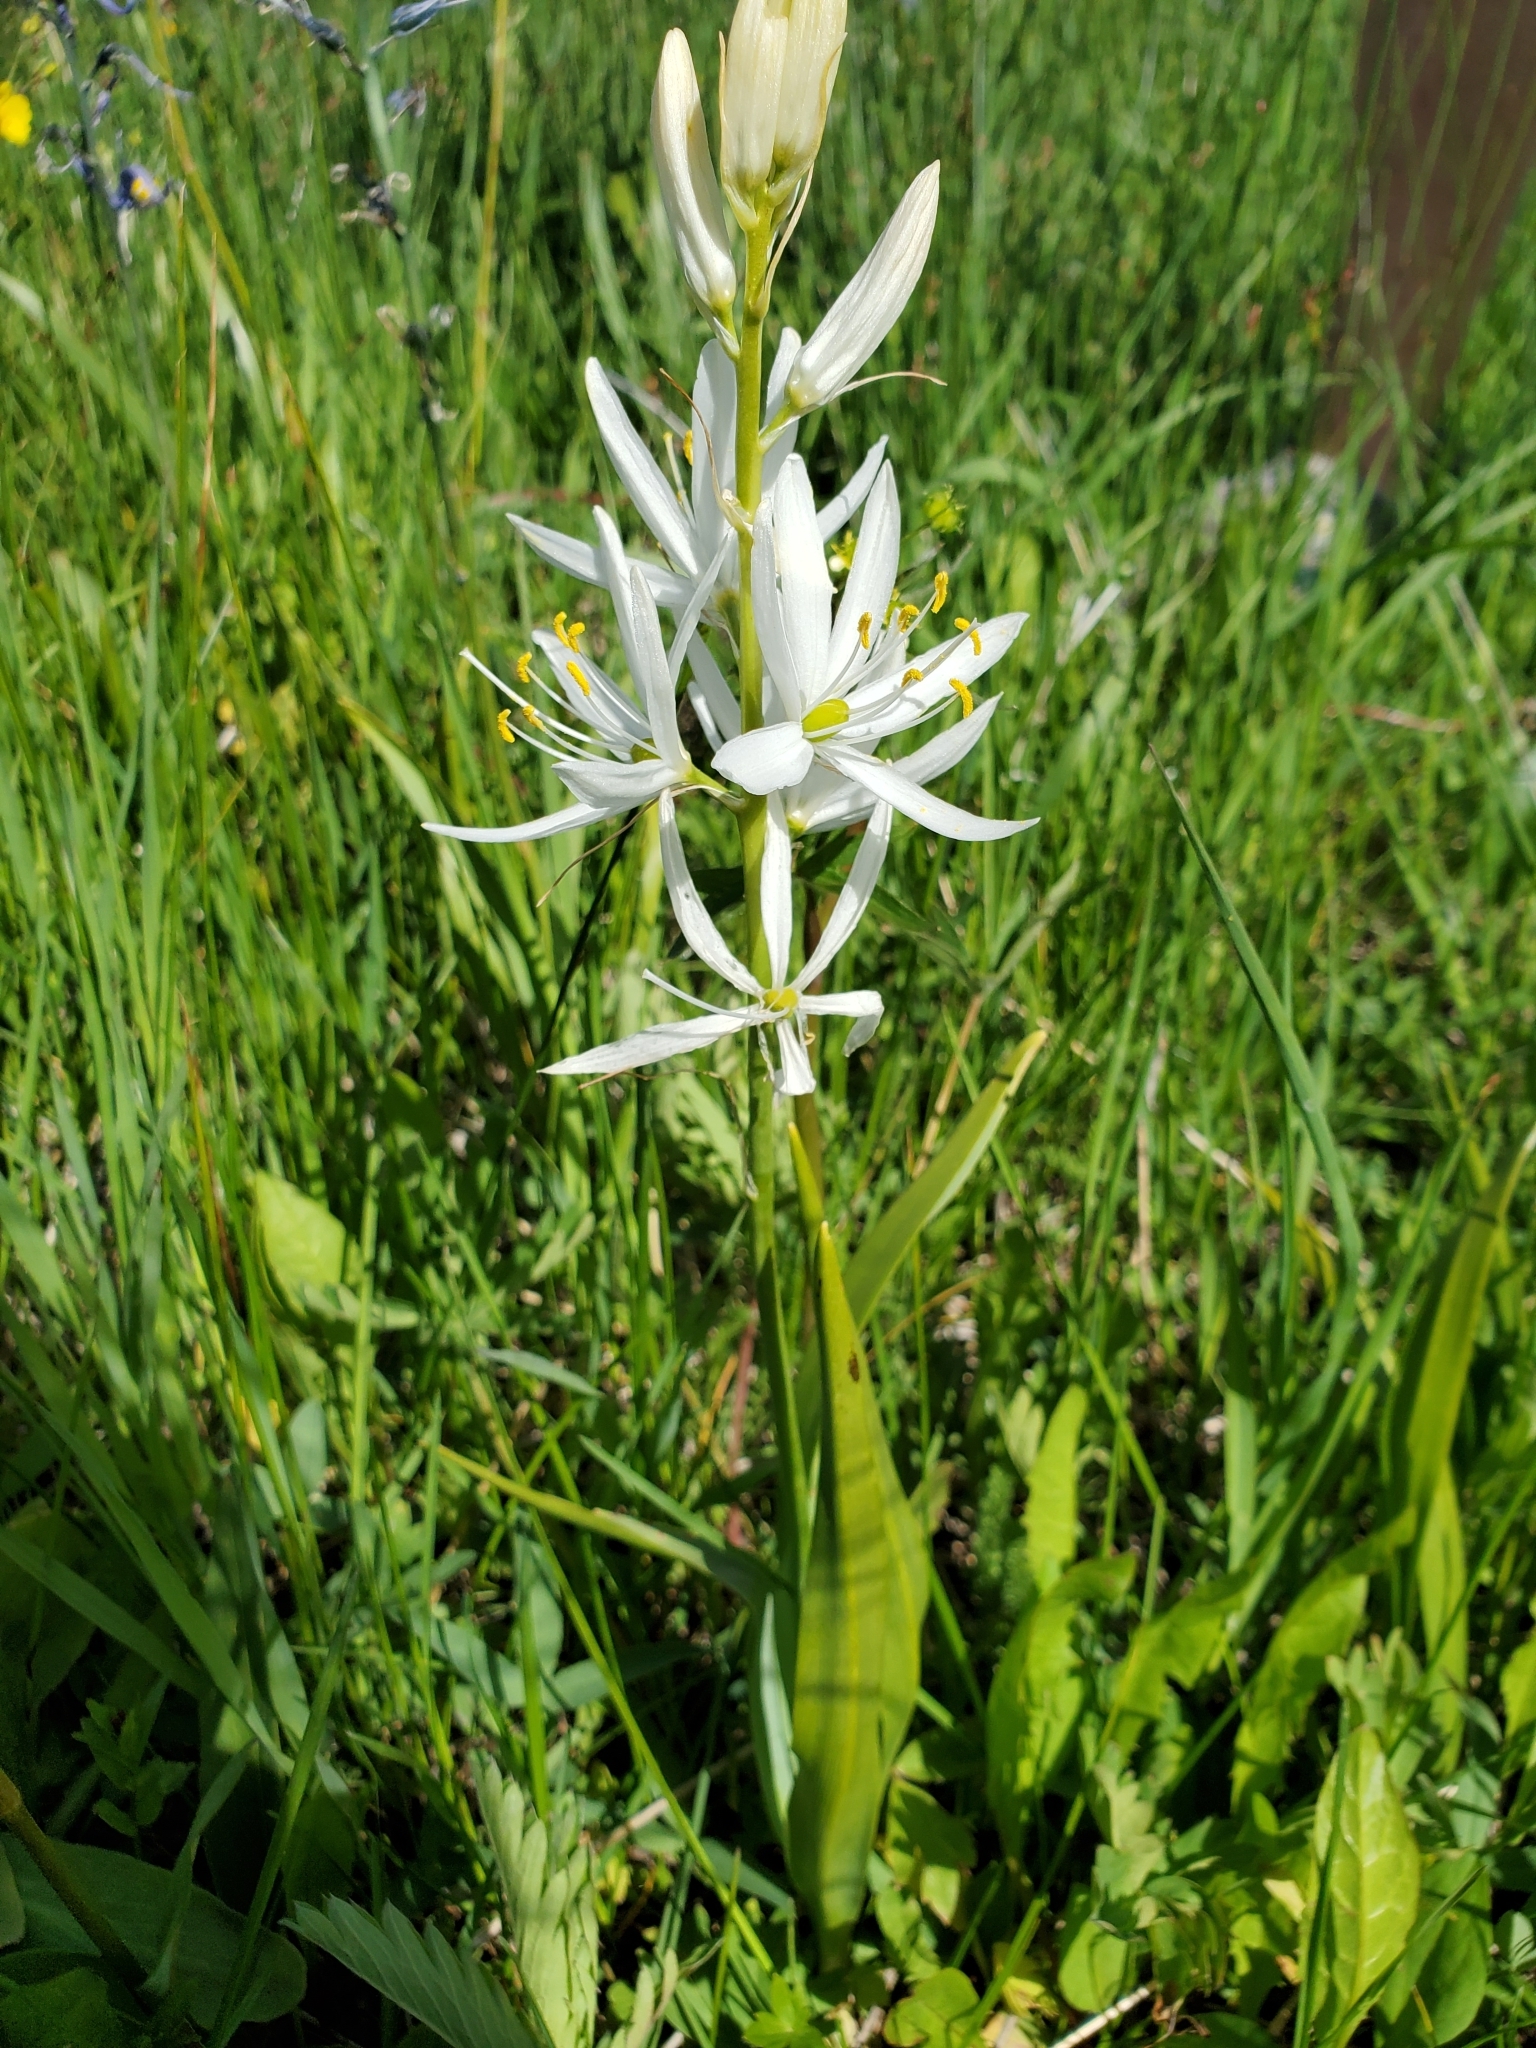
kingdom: Plantae
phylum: Tracheophyta
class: Liliopsida
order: Asparagales
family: Asparagaceae
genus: Camassia
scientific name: Camassia quamash
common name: Common camas
